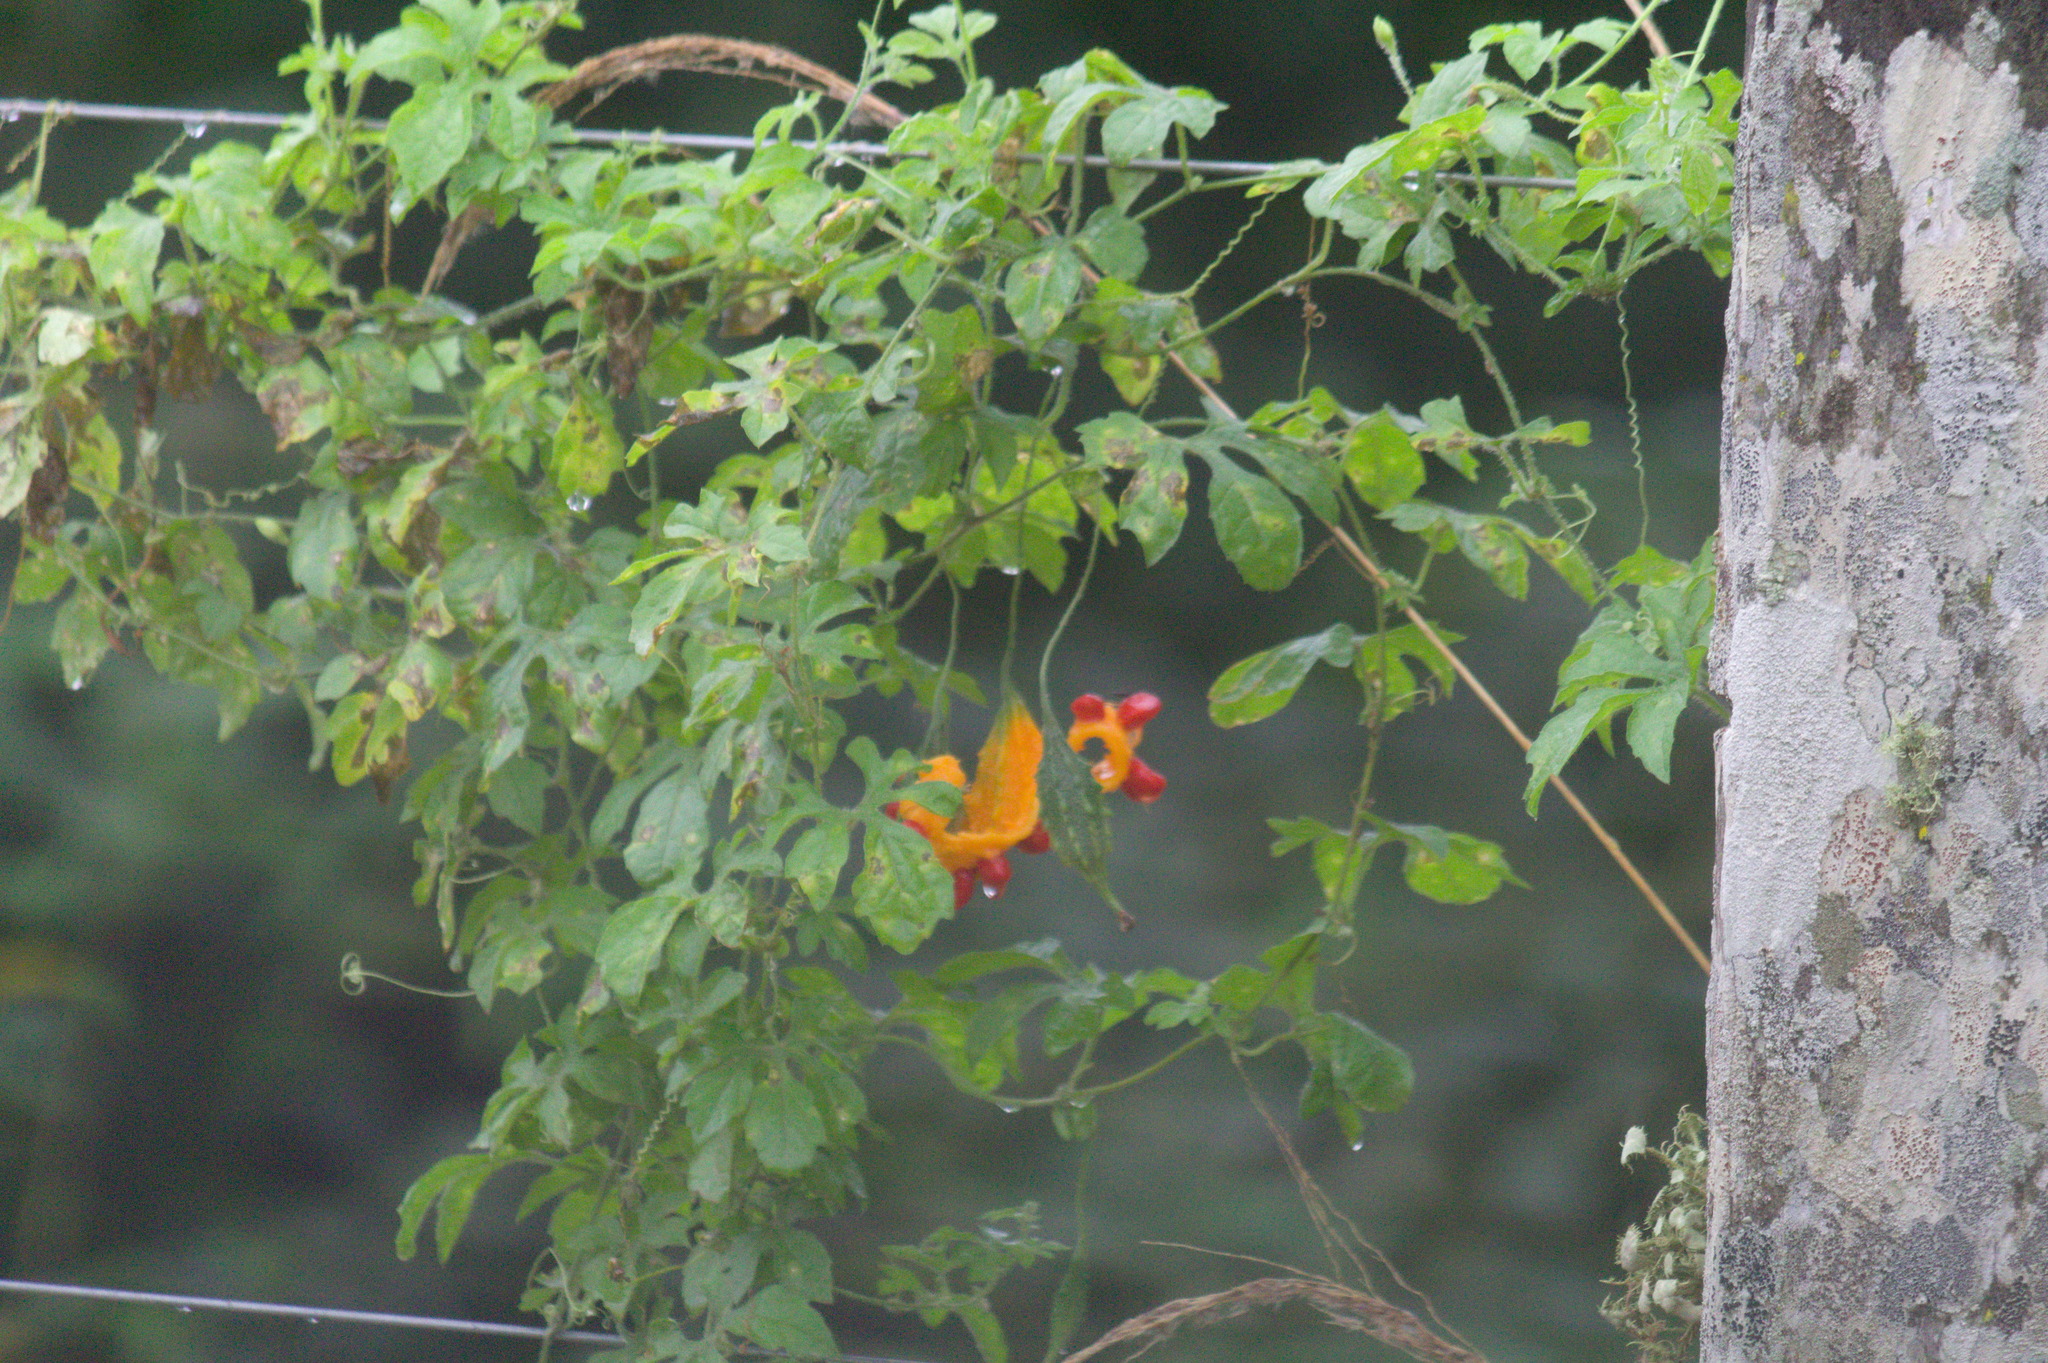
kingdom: Plantae
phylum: Tracheophyta
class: Magnoliopsida
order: Cucurbitales
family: Cucurbitaceae
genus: Momordica
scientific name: Momordica charantia
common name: Balsampear
